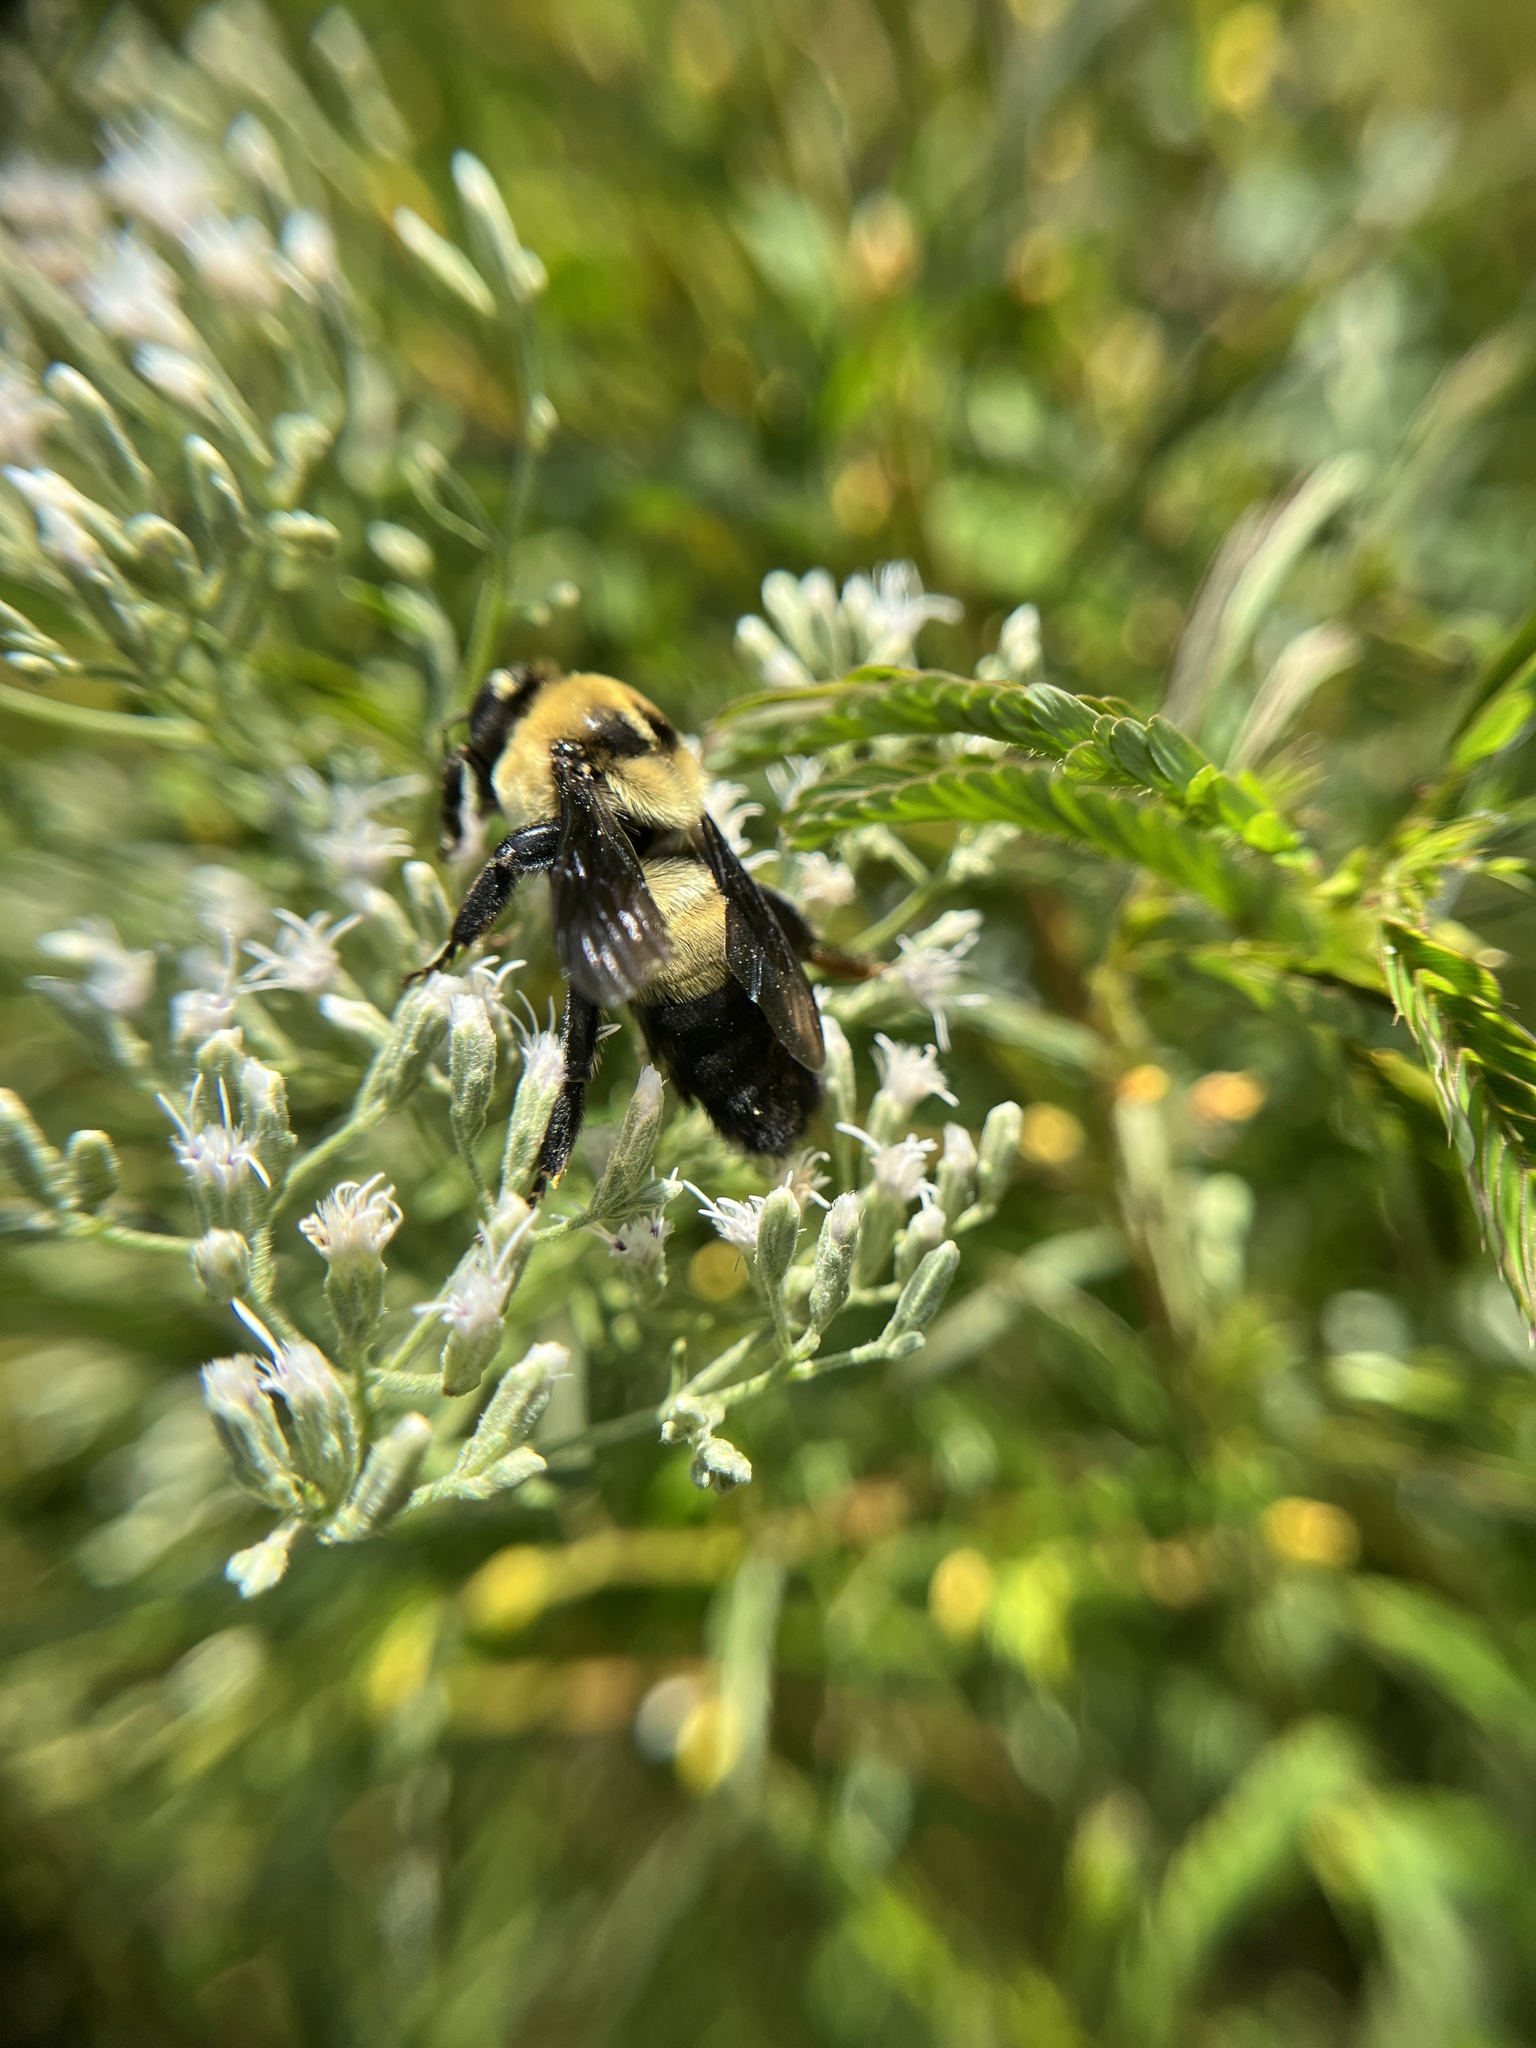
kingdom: Animalia
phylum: Arthropoda
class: Insecta
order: Hymenoptera
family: Apidae
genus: Bombus
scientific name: Bombus fraternus
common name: Southern plains bumble bee
